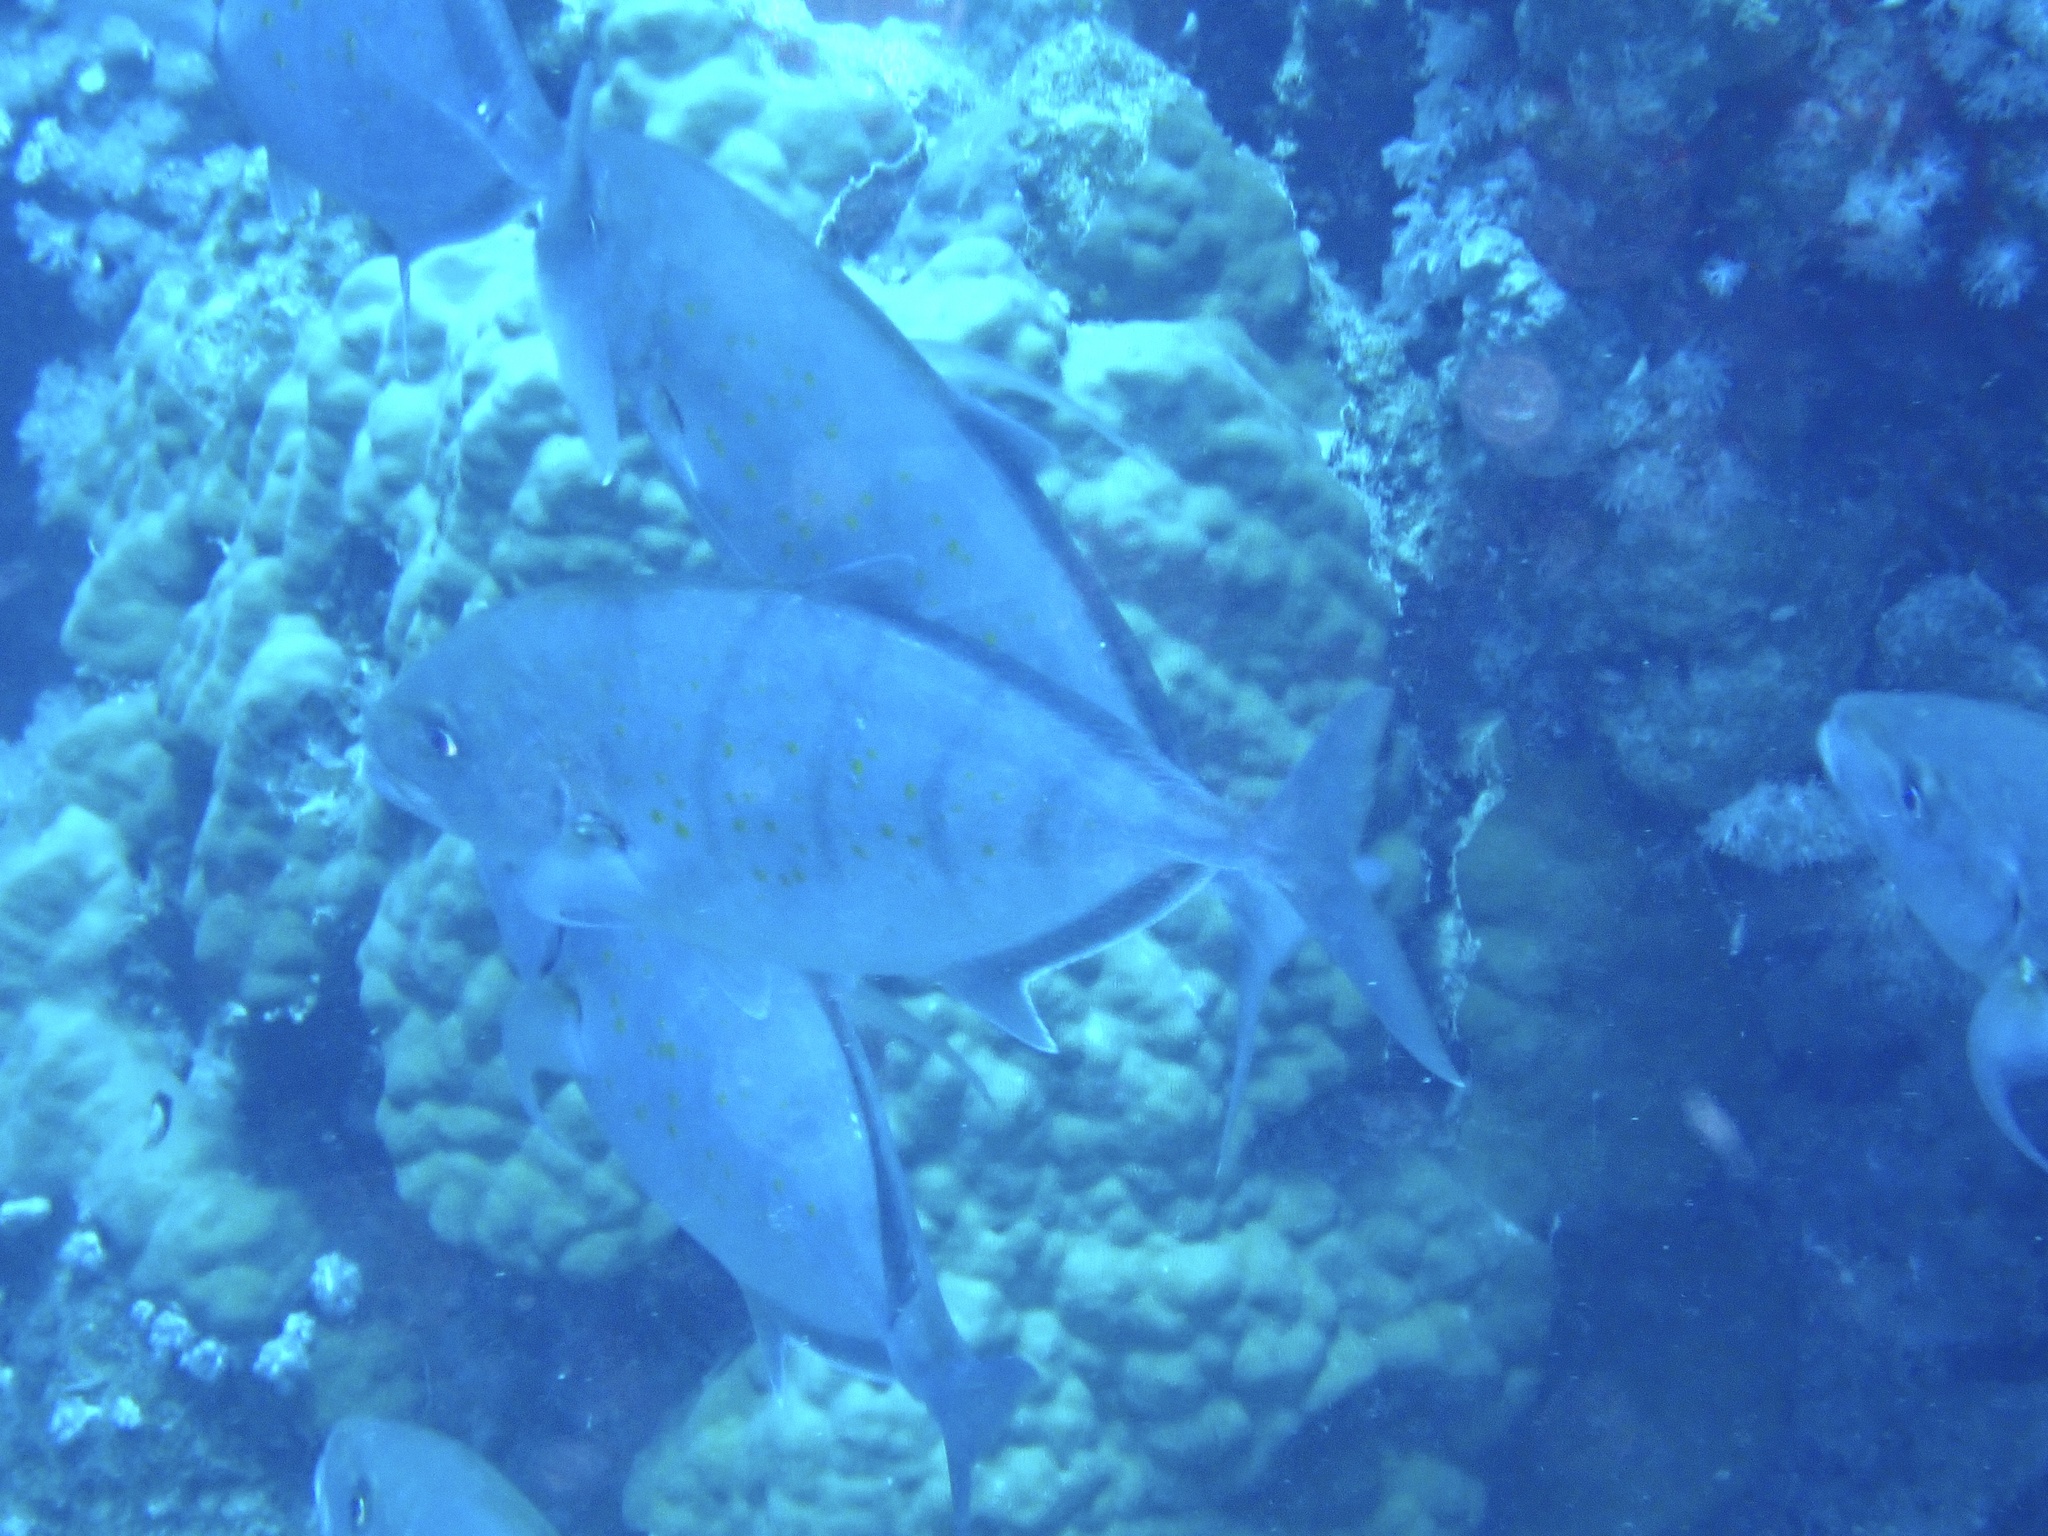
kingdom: Animalia
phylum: Chordata
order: Perciformes
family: Carangidae
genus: Flavocaranx
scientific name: Flavocaranx bajad
